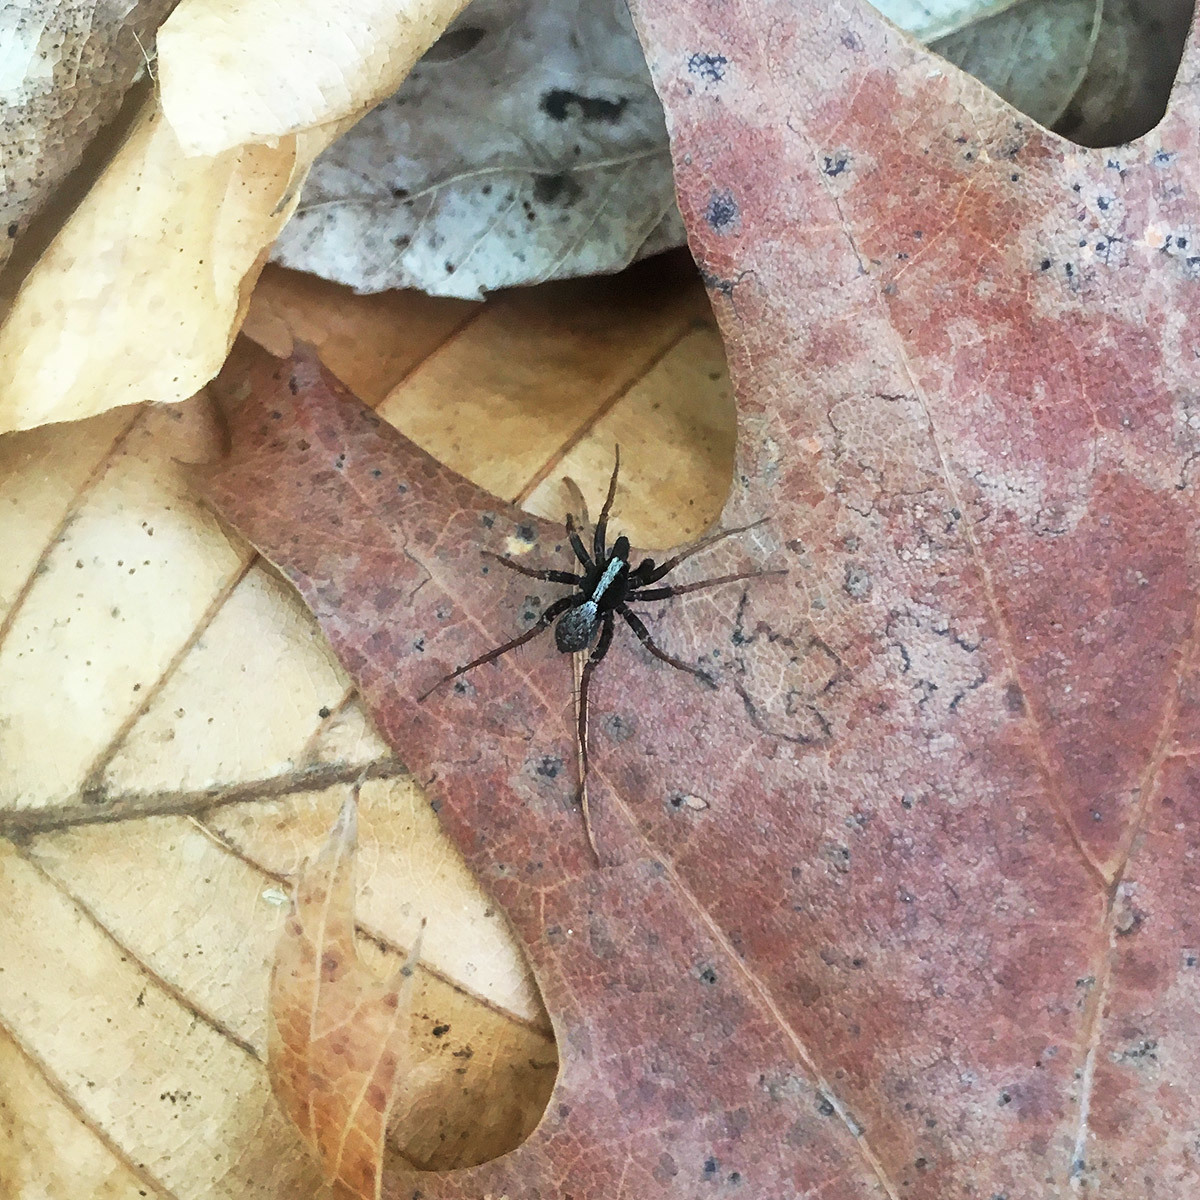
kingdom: Animalia
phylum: Arthropoda
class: Arachnida
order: Araneae
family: Lycosidae
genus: Pardosa
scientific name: Pardosa
